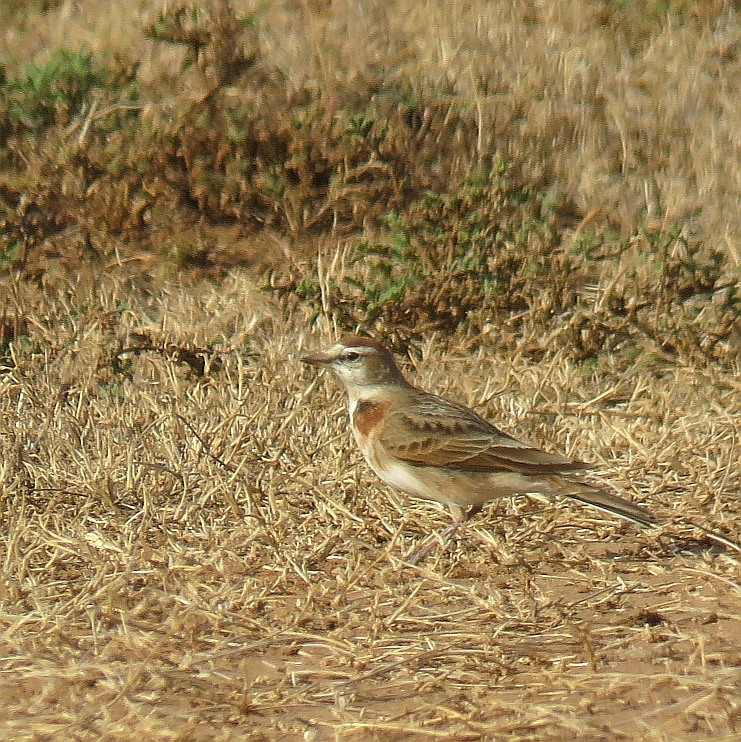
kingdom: Animalia
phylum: Chordata
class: Aves
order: Passeriformes
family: Alaudidae
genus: Calandrella
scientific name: Calandrella cinerea
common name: Red-capped lark
